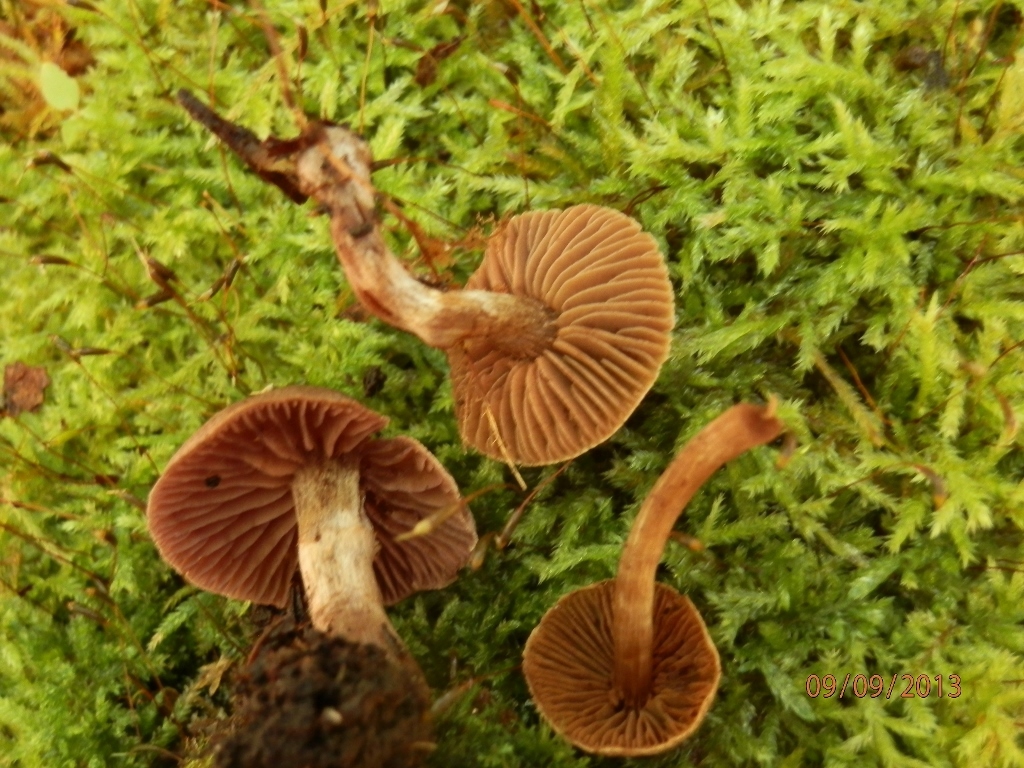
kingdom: Fungi
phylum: Basidiomycota
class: Agaricomycetes
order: Agaricales
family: Cortinariaceae
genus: Cortinarius
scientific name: Cortinarius flexipes
